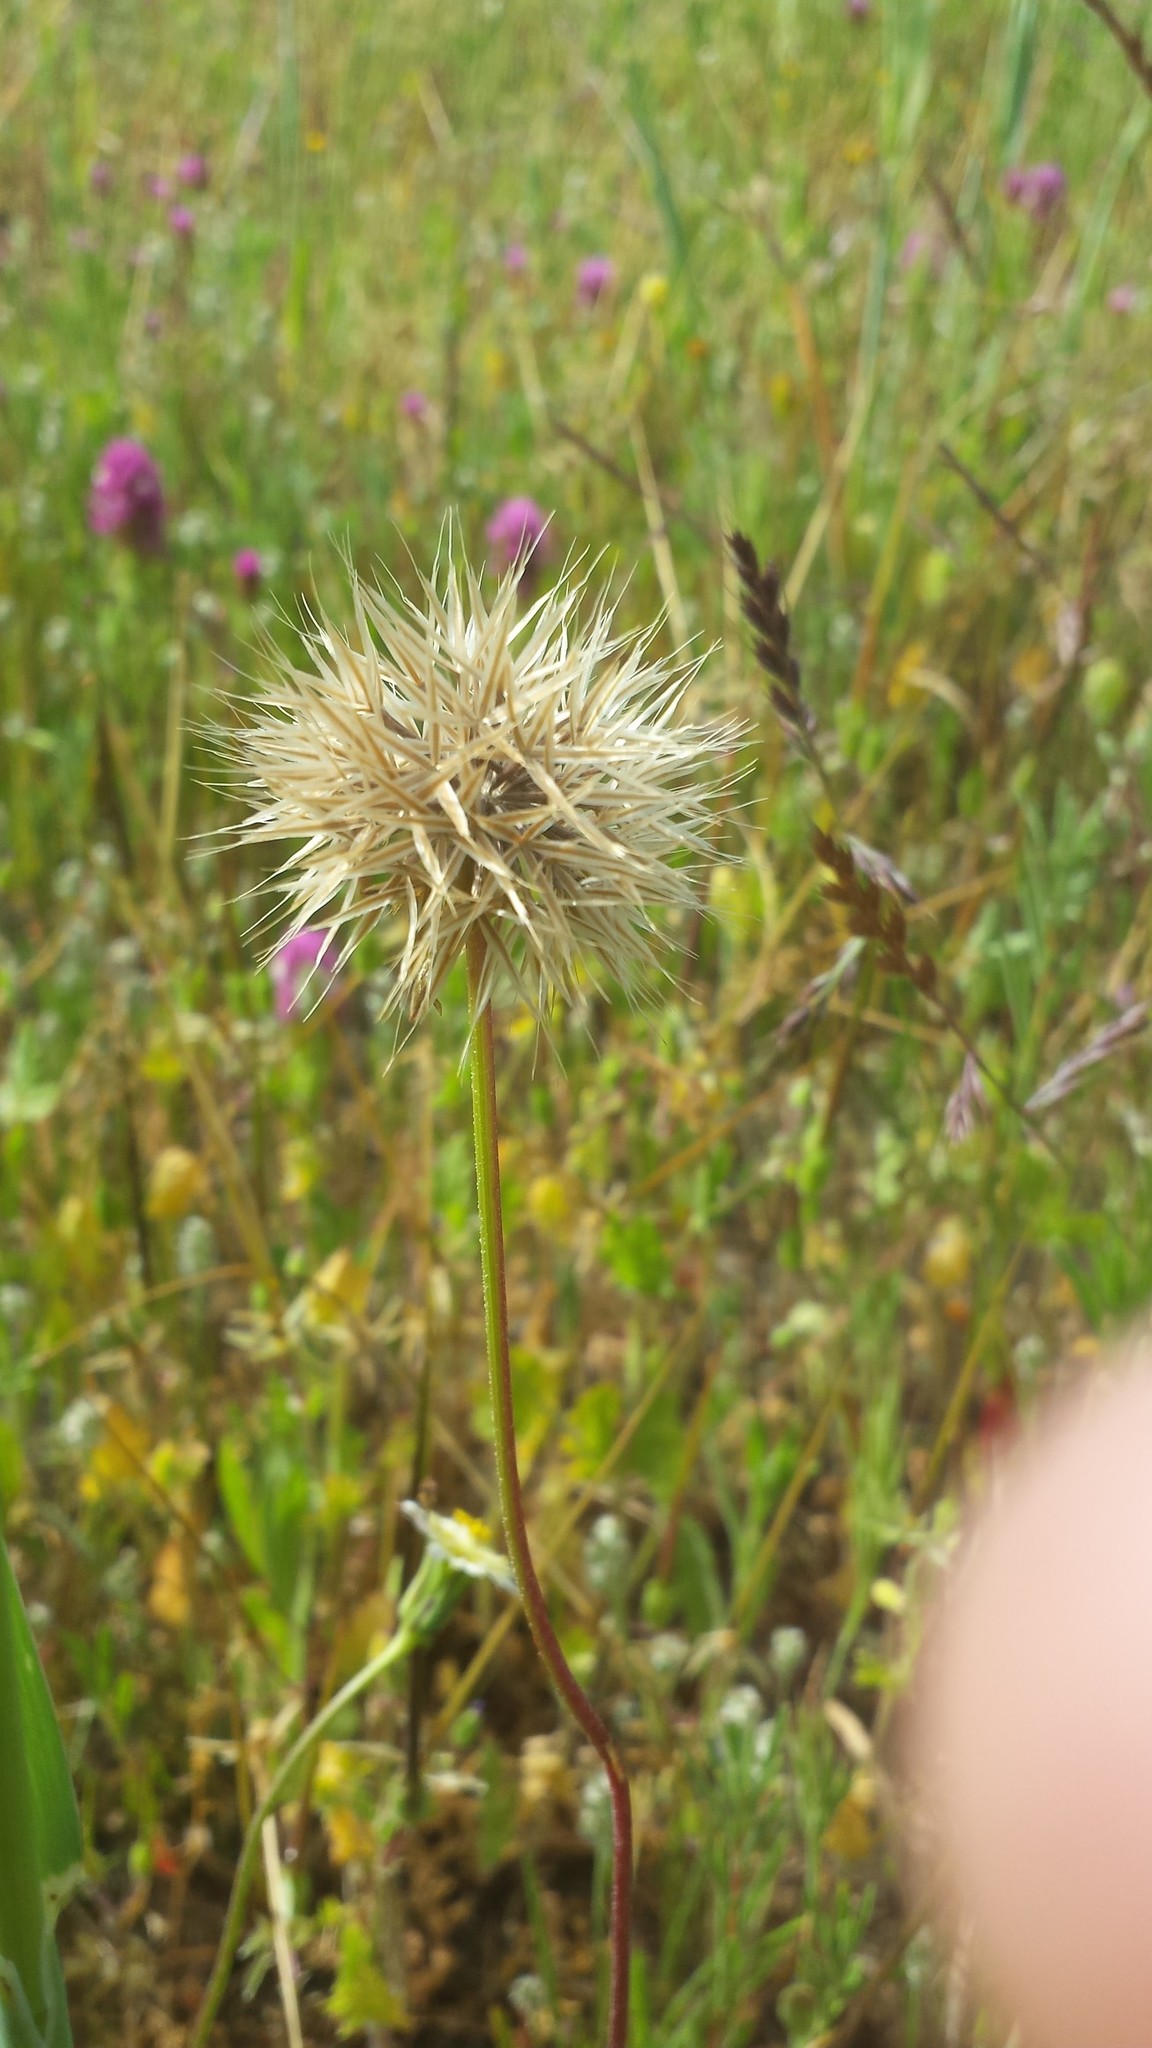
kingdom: Plantae
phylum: Tracheophyta
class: Magnoliopsida
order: Asterales
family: Asteraceae
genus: Microseris
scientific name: Microseris lindleyi
